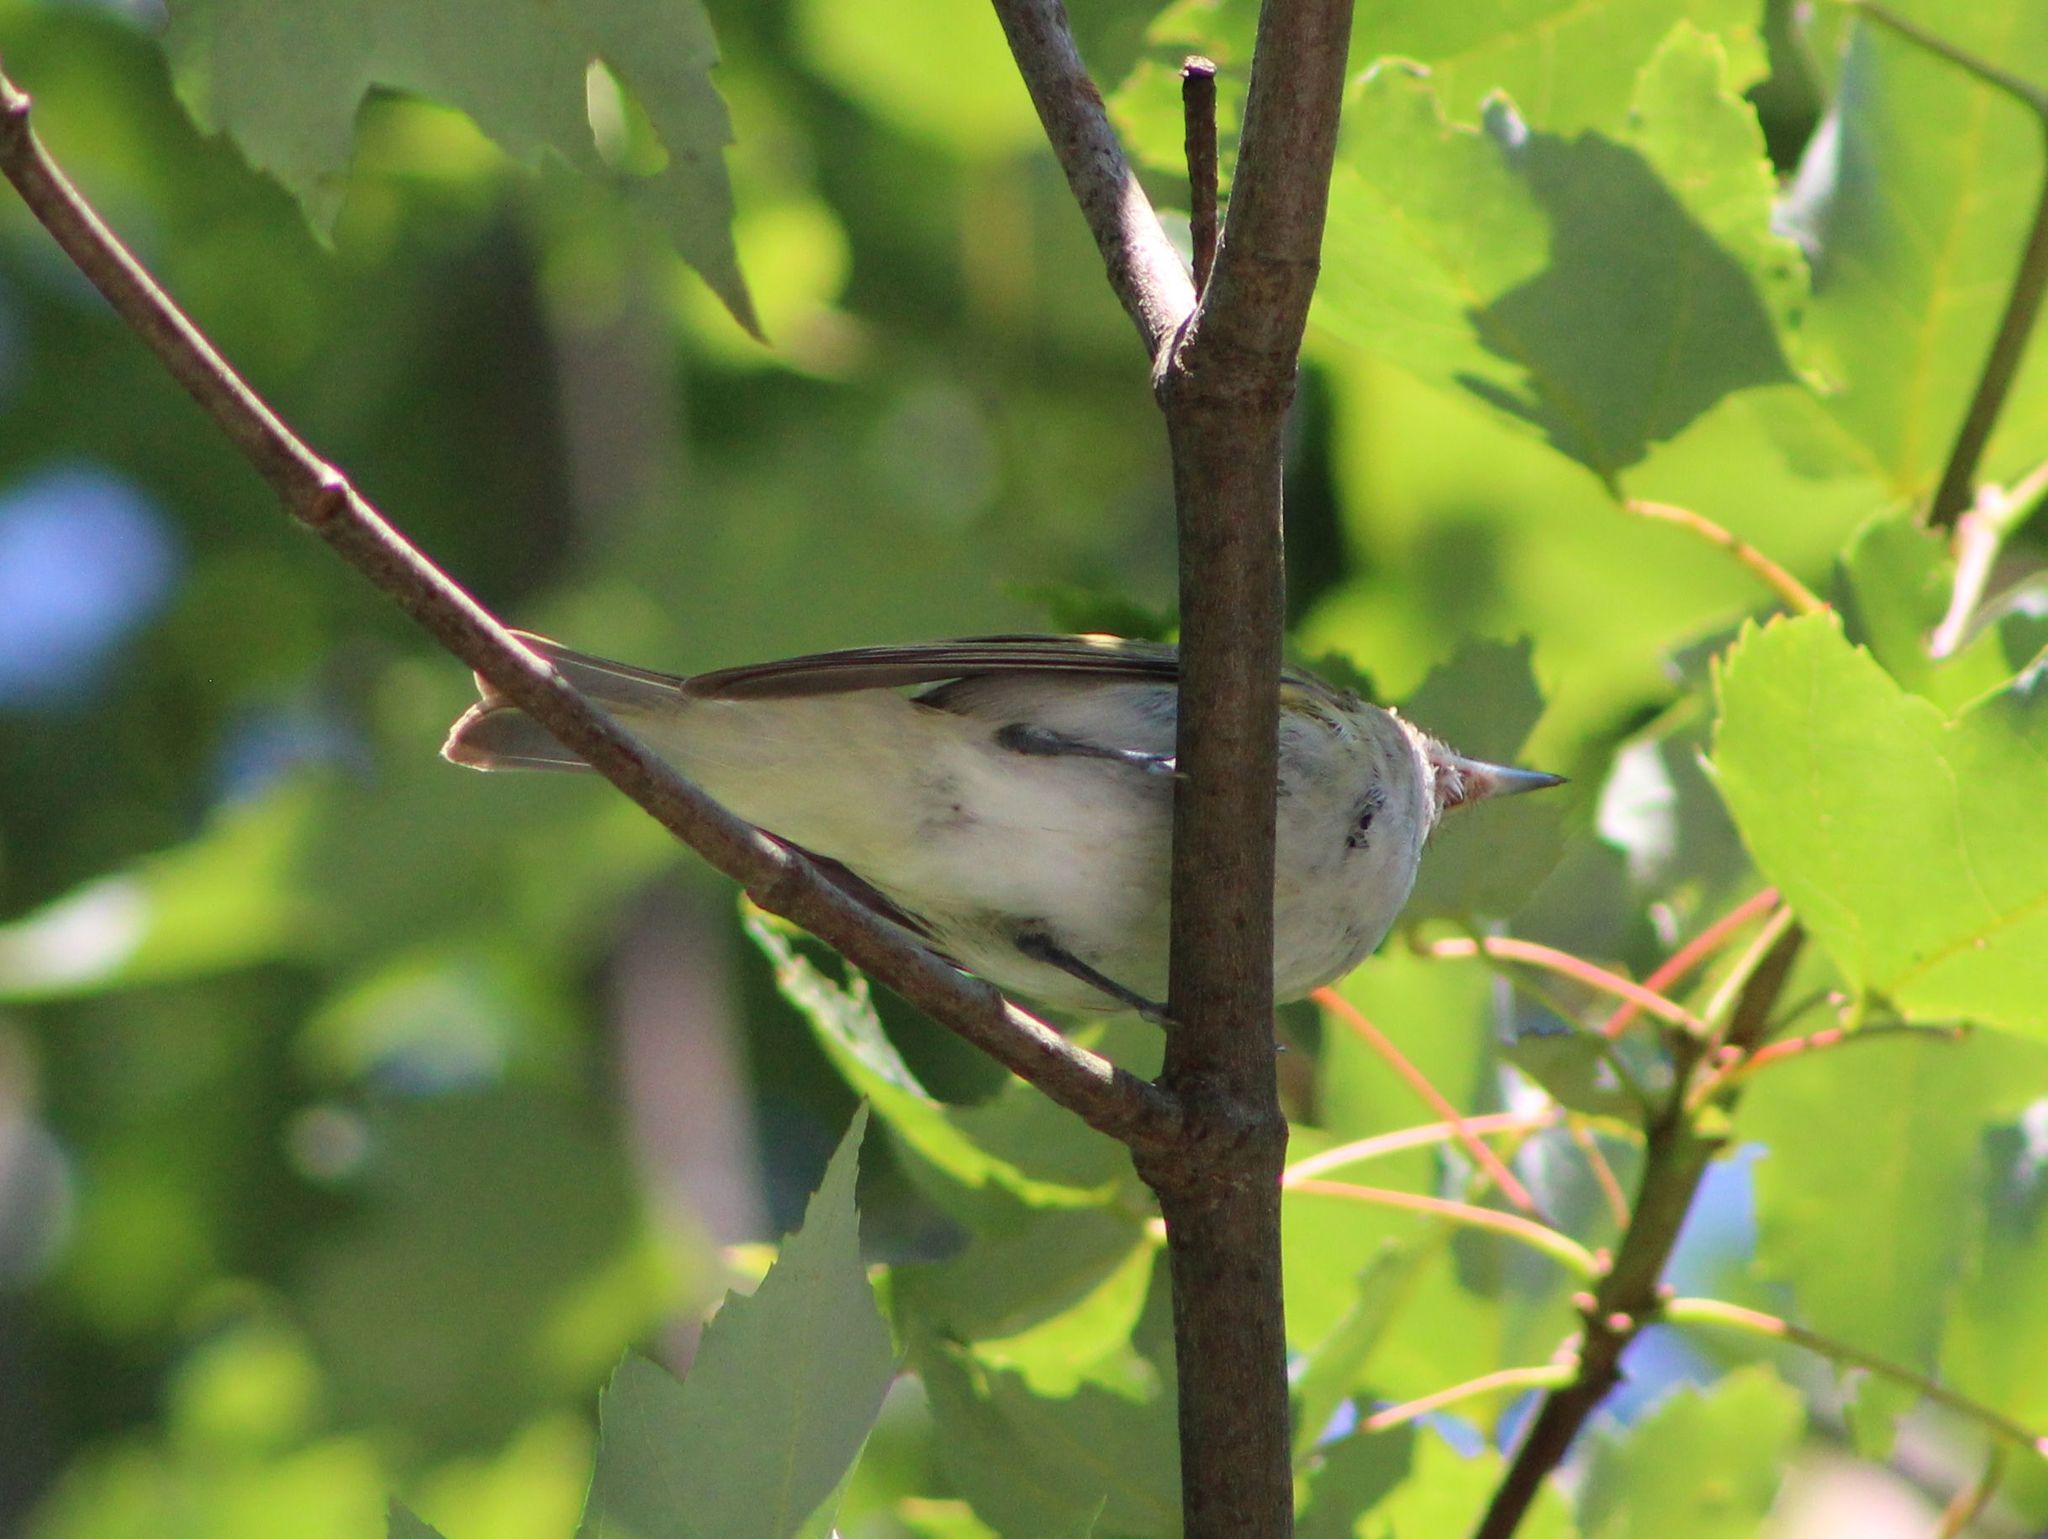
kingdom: Animalia
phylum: Chordata
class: Aves
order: Passeriformes
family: Vireonidae
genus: Vireo
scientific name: Vireo olivaceus
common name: Red-eyed vireo
